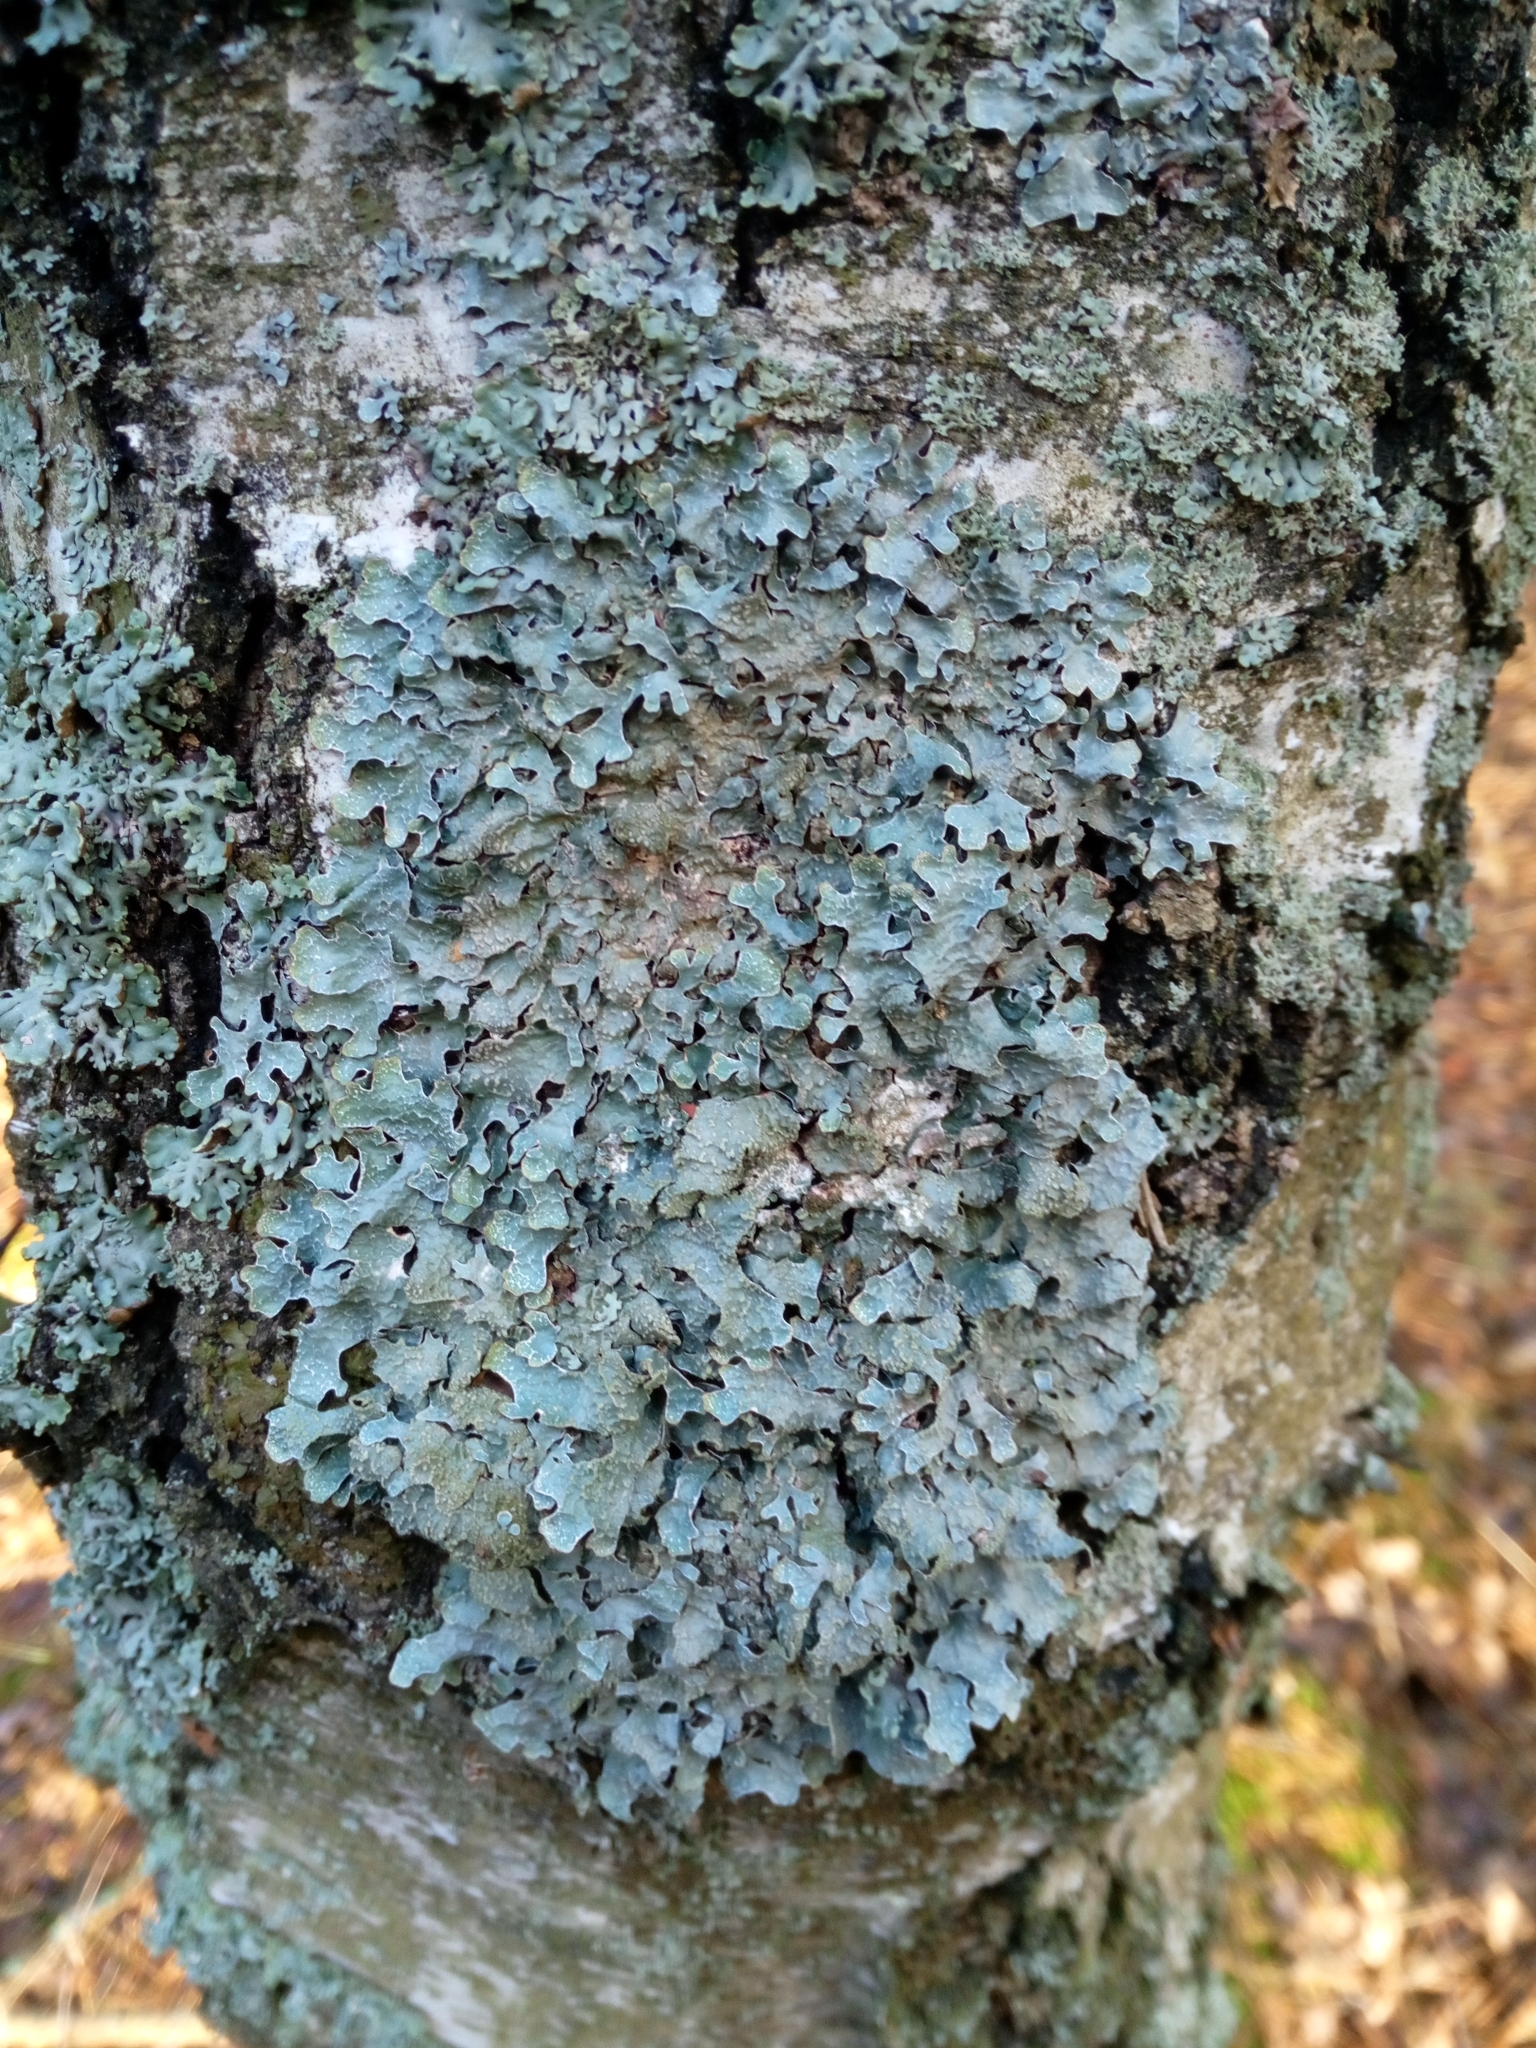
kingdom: Fungi
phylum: Ascomycota
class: Lecanoromycetes
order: Lecanorales
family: Parmeliaceae
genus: Parmelia
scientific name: Parmelia sulcata
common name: Netted shield lichen
